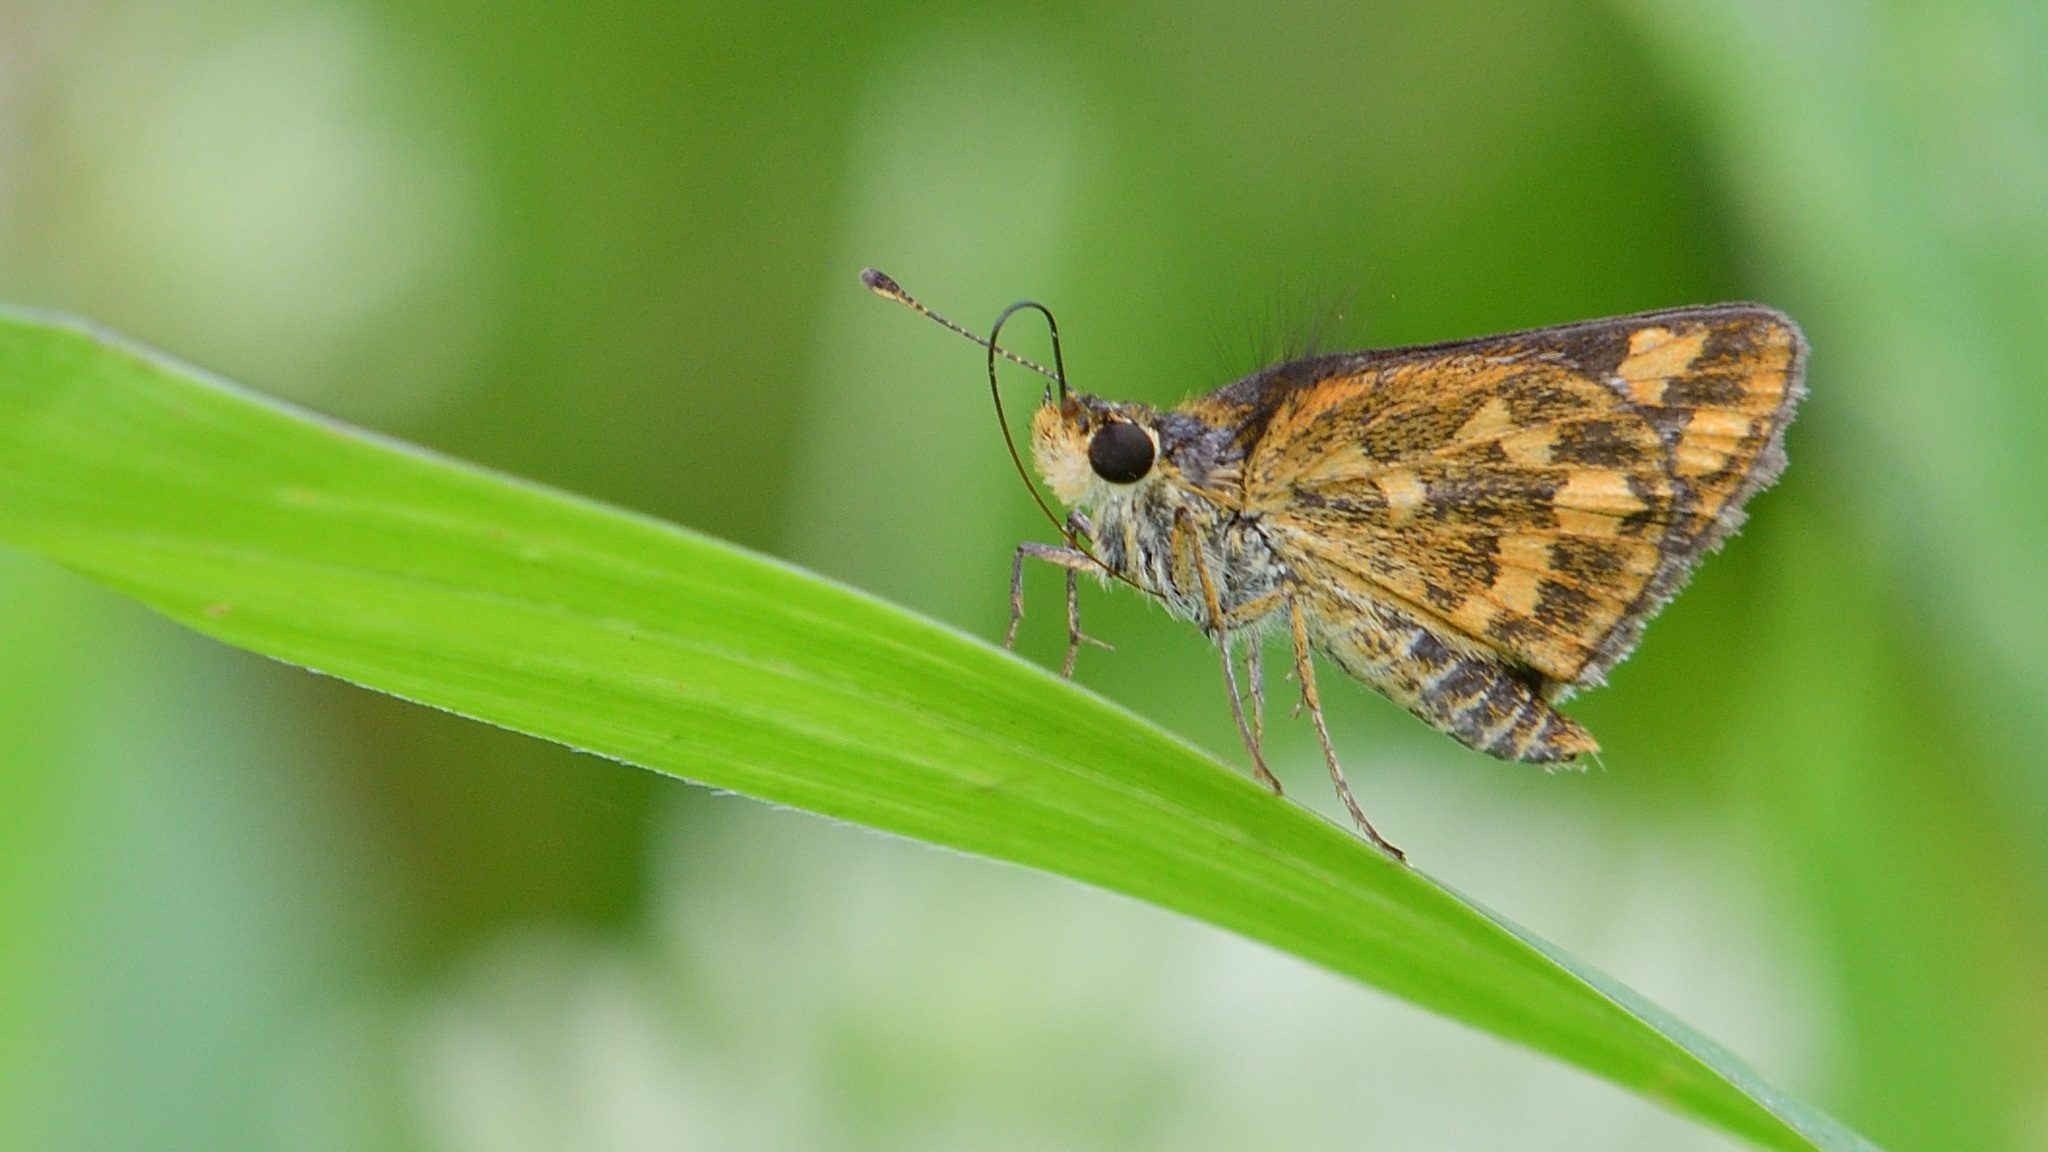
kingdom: Animalia
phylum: Arthropoda
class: Insecta
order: Lepidoptera
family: Hesperiidae
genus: Taractrocera
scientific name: Taractrocera ceramas
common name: Tamil grass dart
